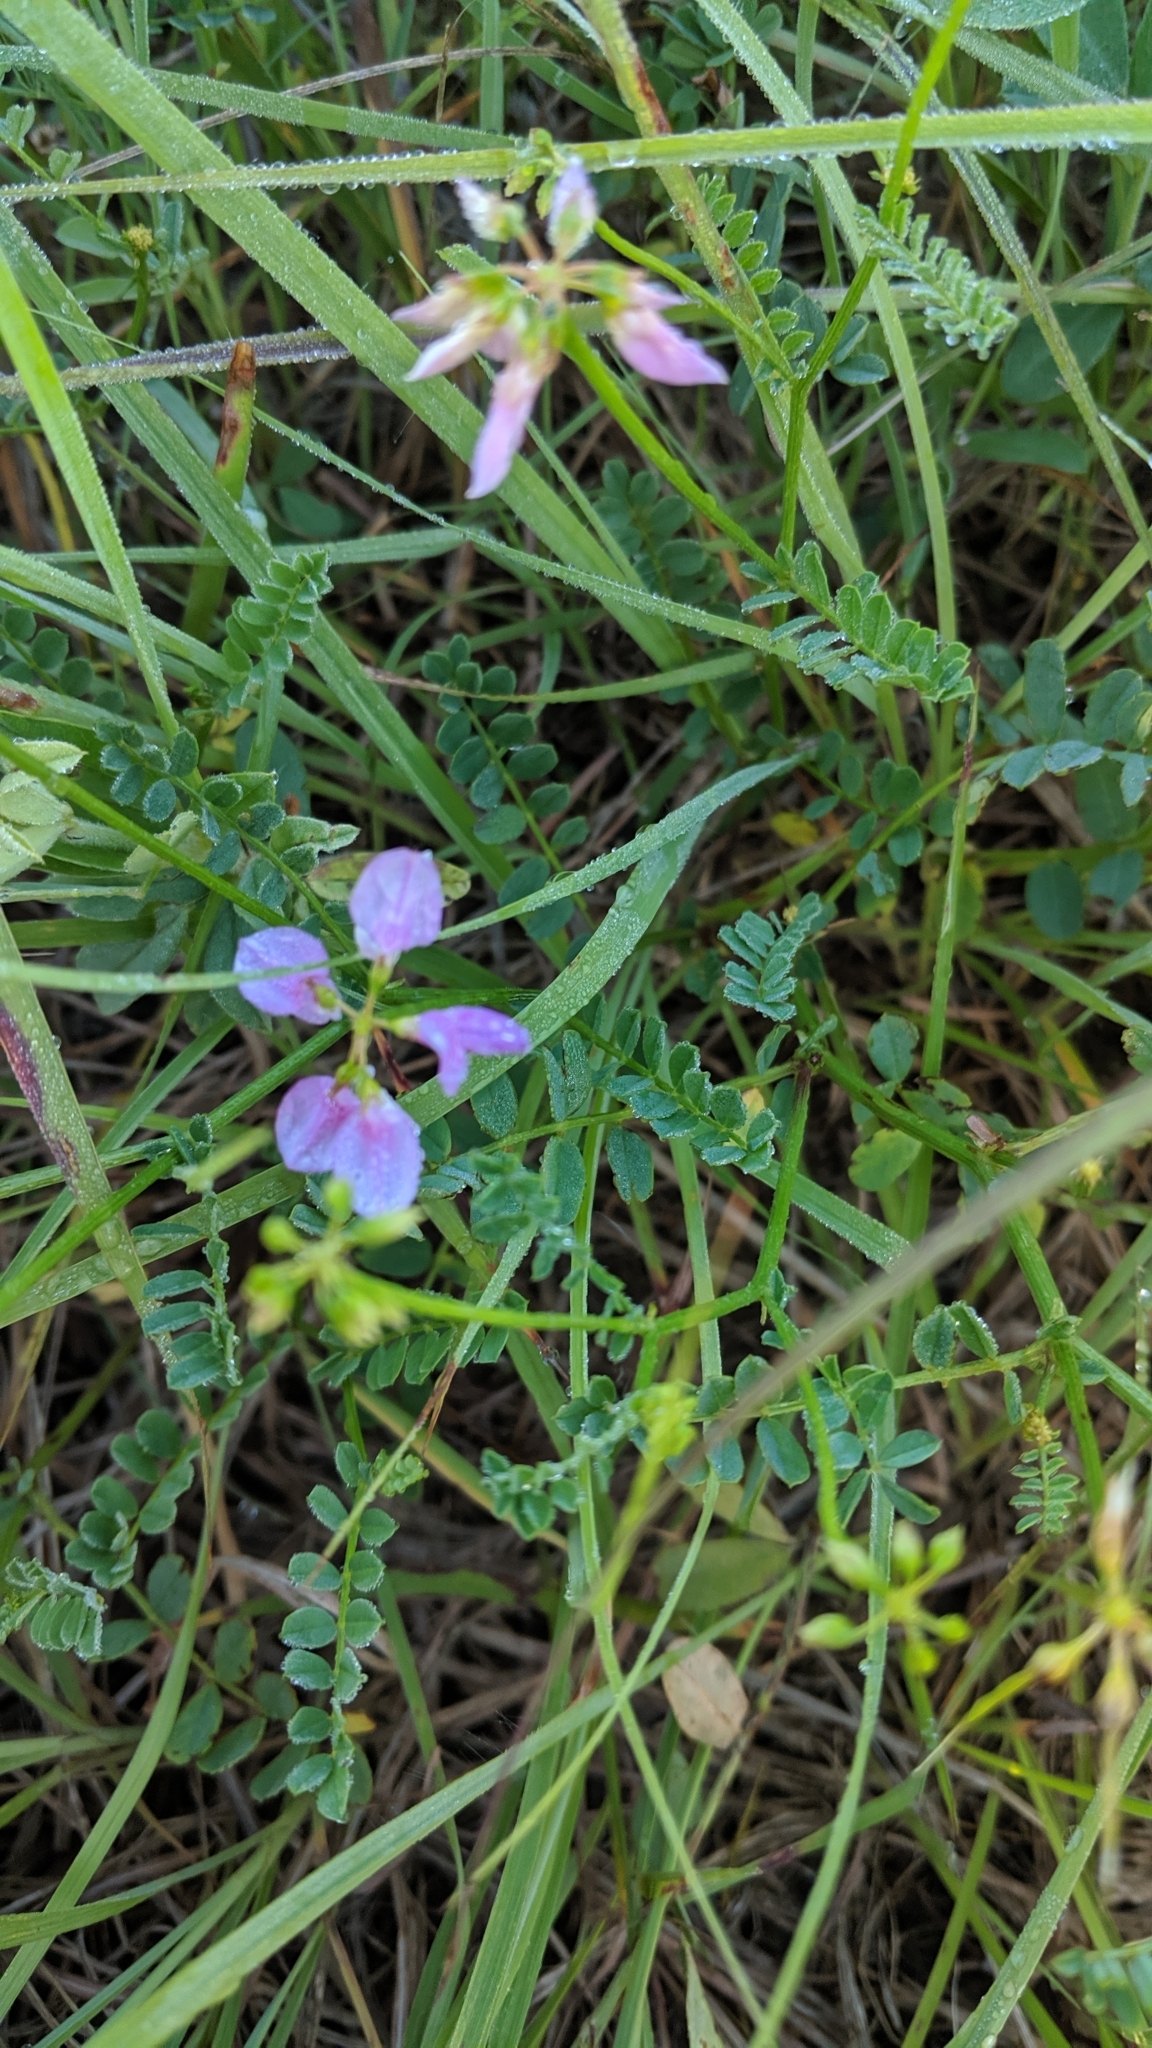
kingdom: Plantae
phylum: Tracheophyta
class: Magnoliopsida
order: Fabales
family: Fabaceae
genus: Coronilla
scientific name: Coronilla varia
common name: Crownvetch
